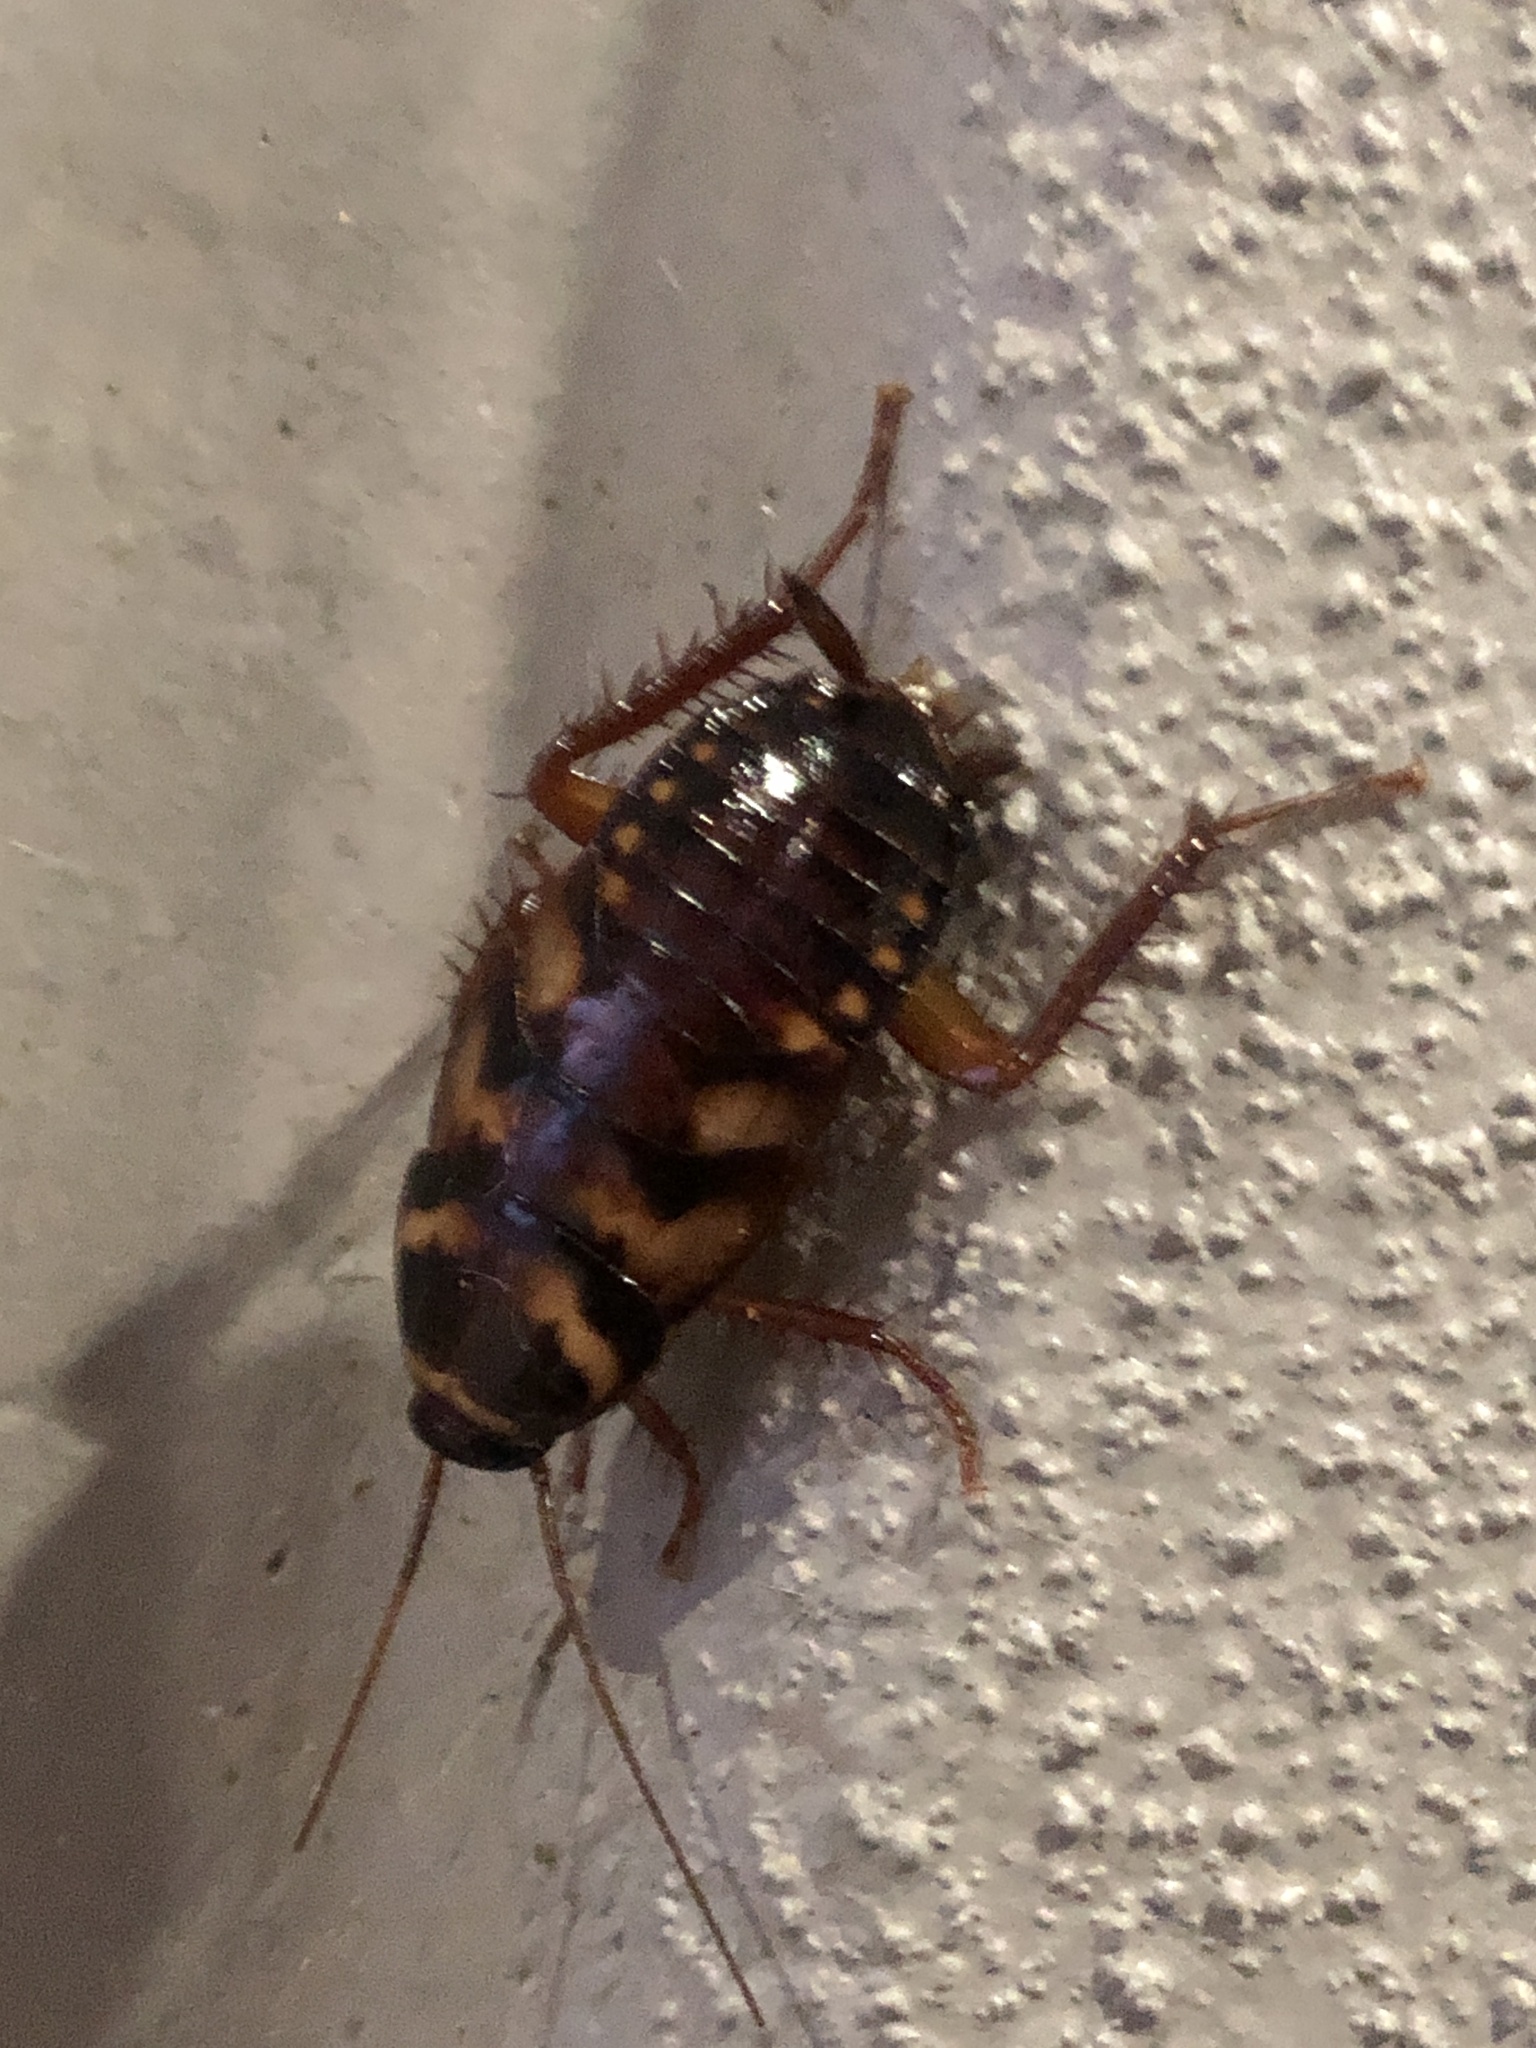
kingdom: Animalia
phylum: Arthropoda
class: Insecta
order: Blattodea
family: Blattidae
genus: Periplaneta
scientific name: Periplaneta australasiae
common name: Australian cockroach
